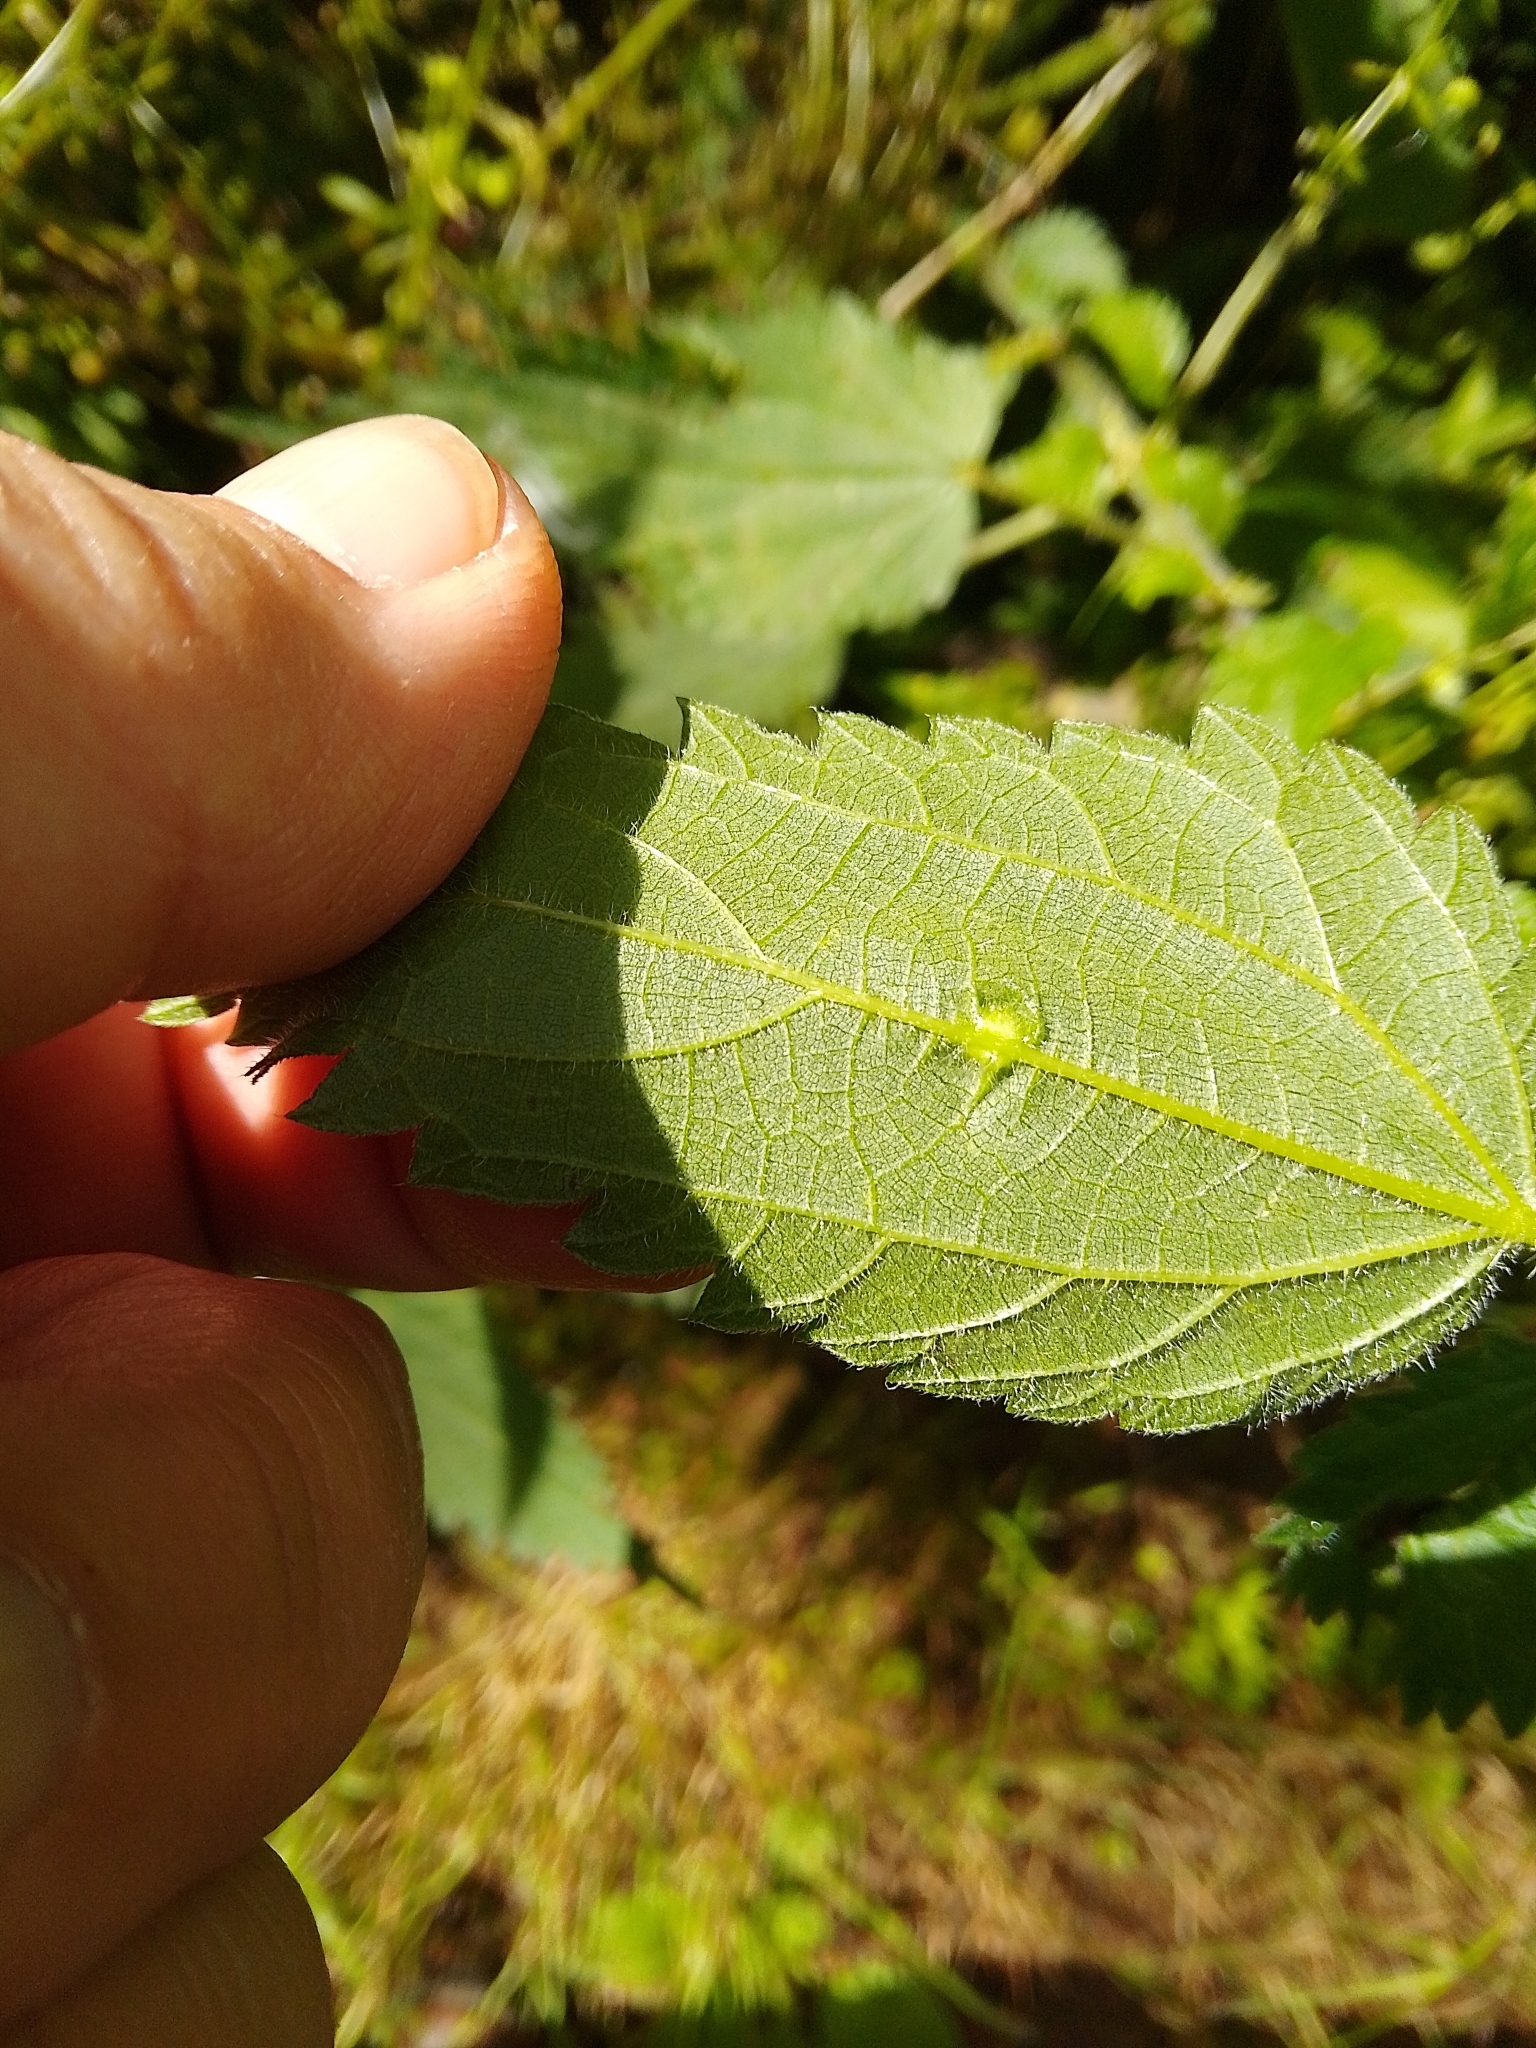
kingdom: Animalia
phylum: Arthropoda
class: Insecta
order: Diptera
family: Cecidomyiidae
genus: Dasineura
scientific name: Dasineura urticae
